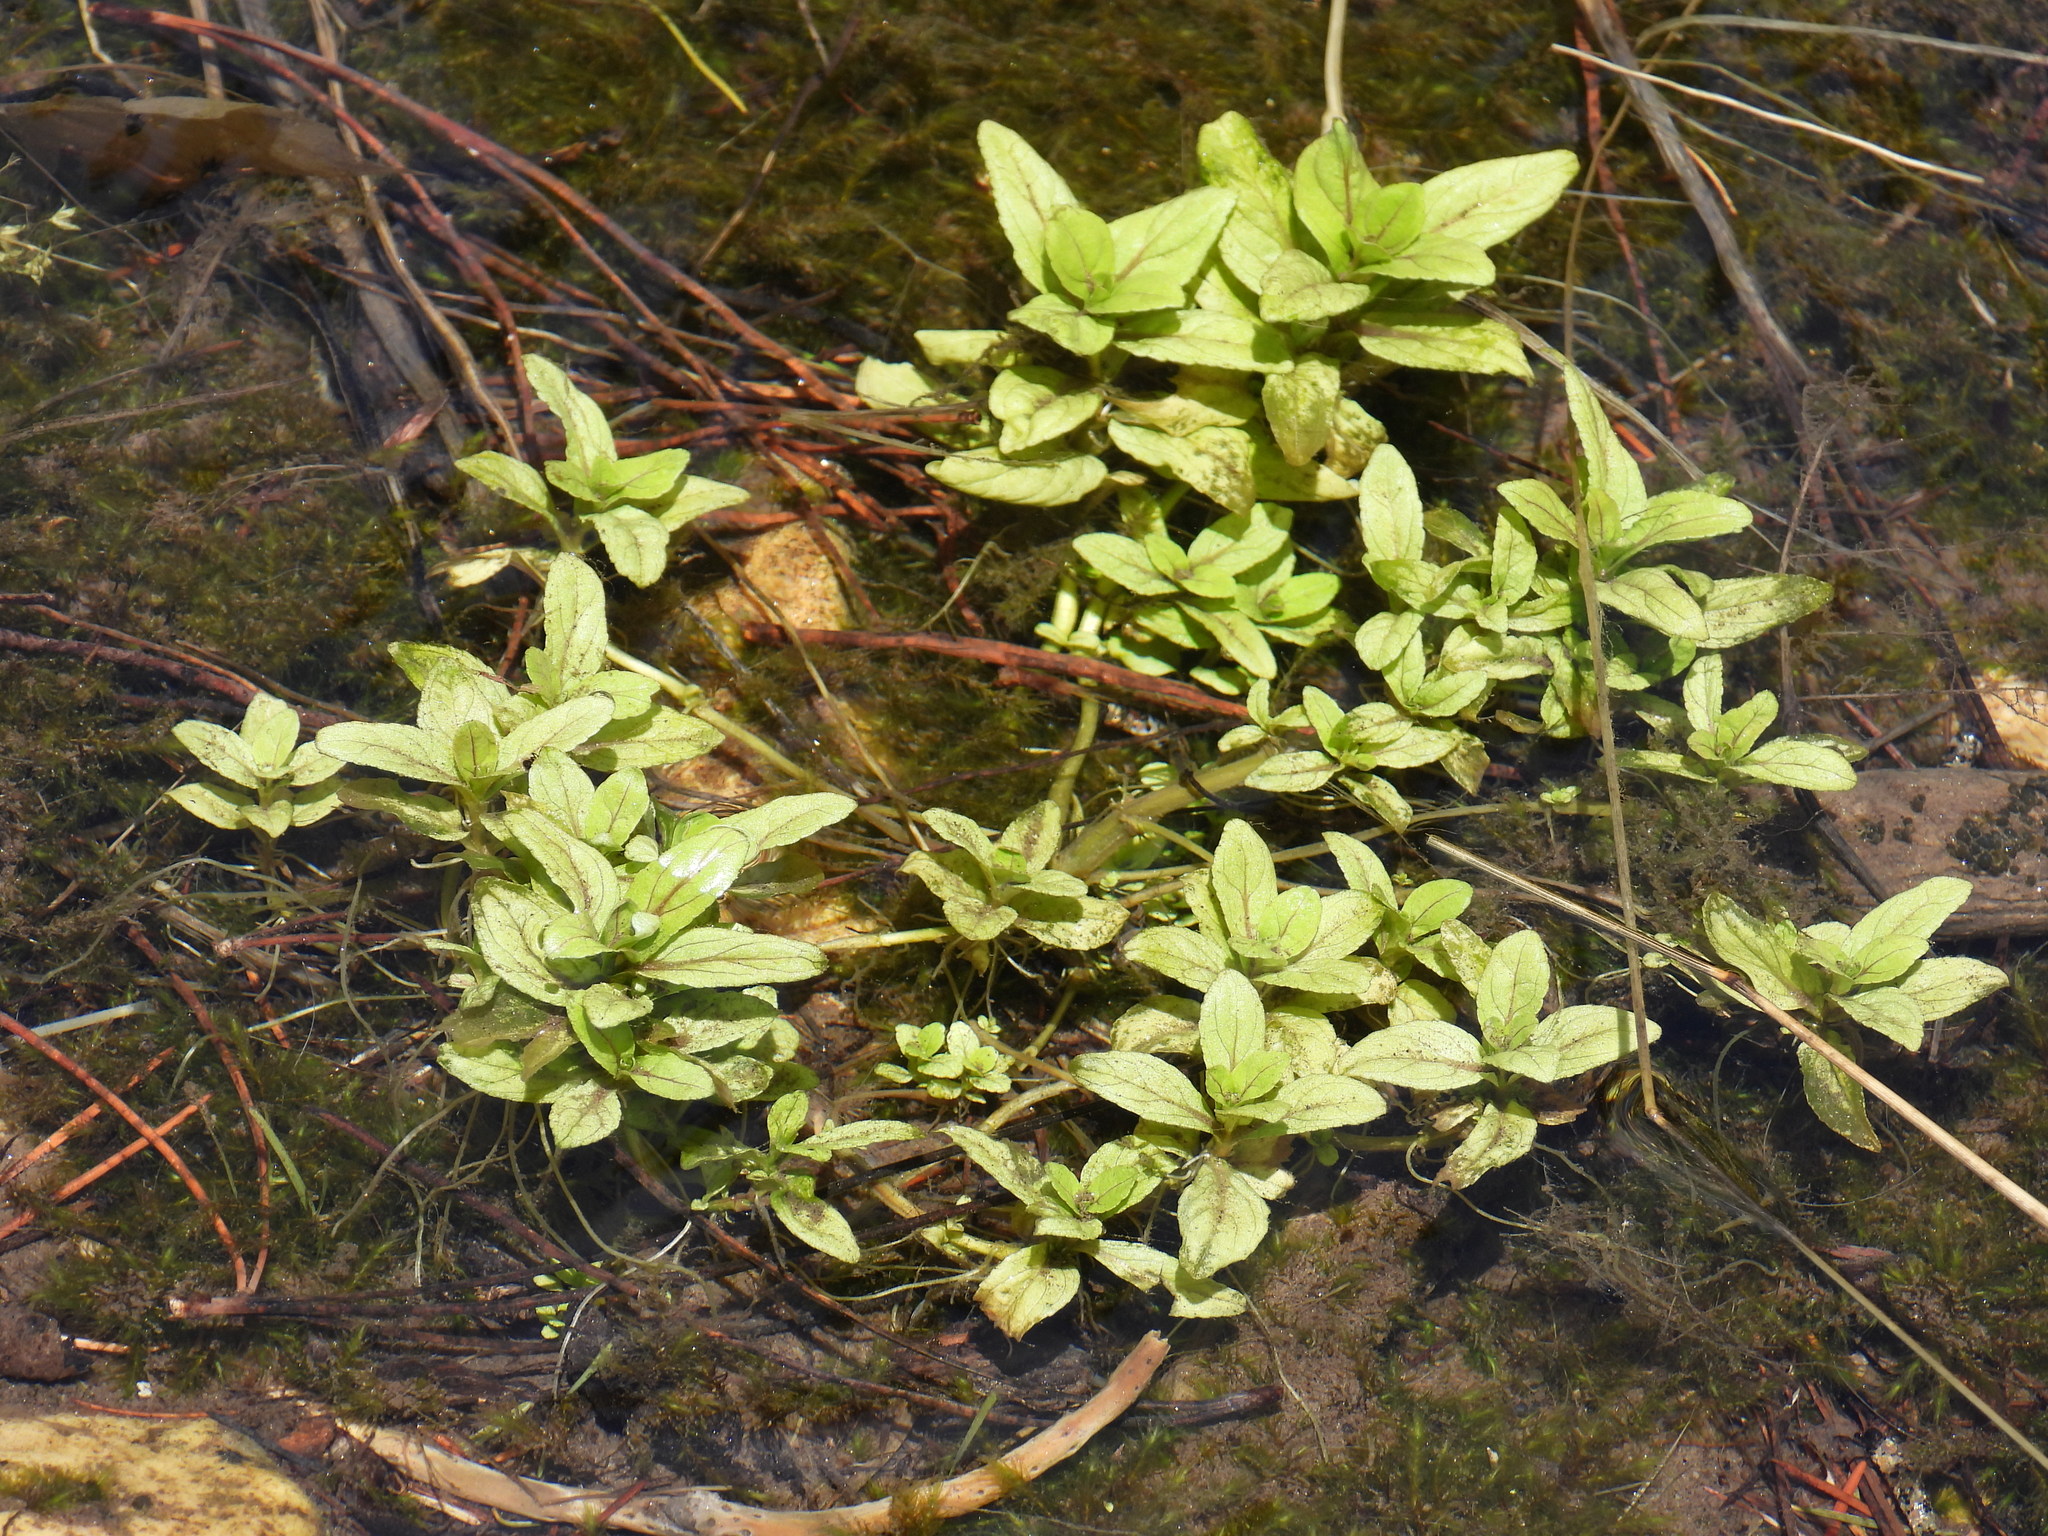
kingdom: Plantae
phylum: Tracheophyta
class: Magnoliopsida
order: Lamiales
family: Plantaginaceae
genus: Veronica
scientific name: Veronica anagallis-aquatica
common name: Water speedwell
